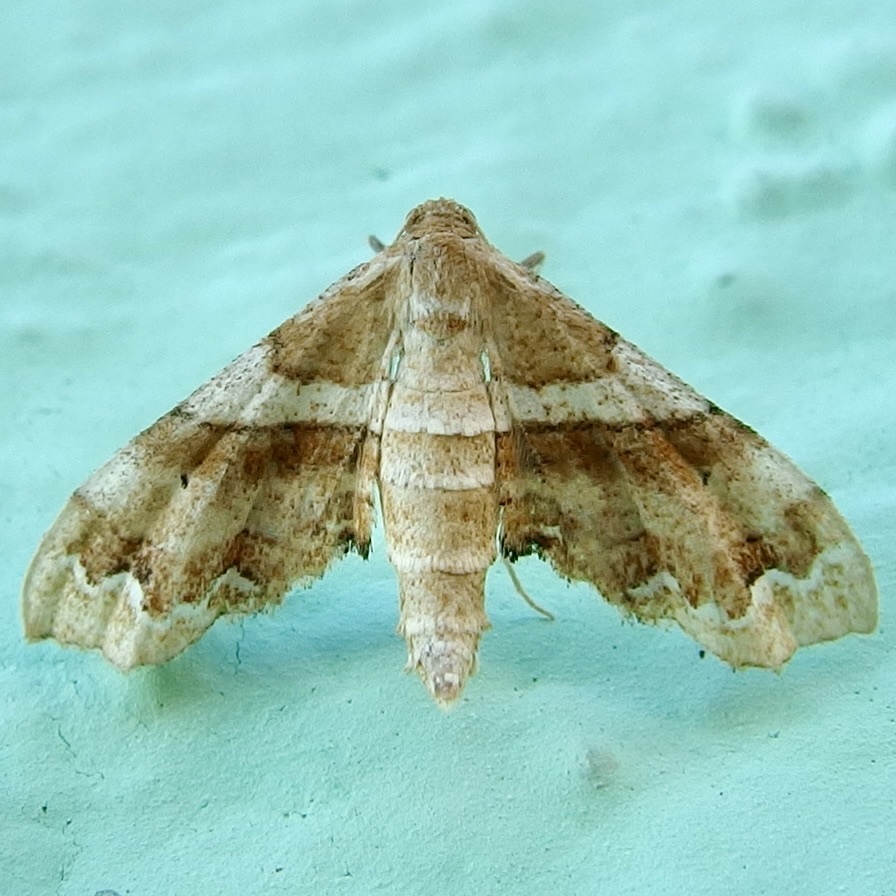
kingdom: Animalia
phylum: Arthropoda
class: Insecta
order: Lepidoptera
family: Geometridae
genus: Odontoptila
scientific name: Odontoptila obrimo
